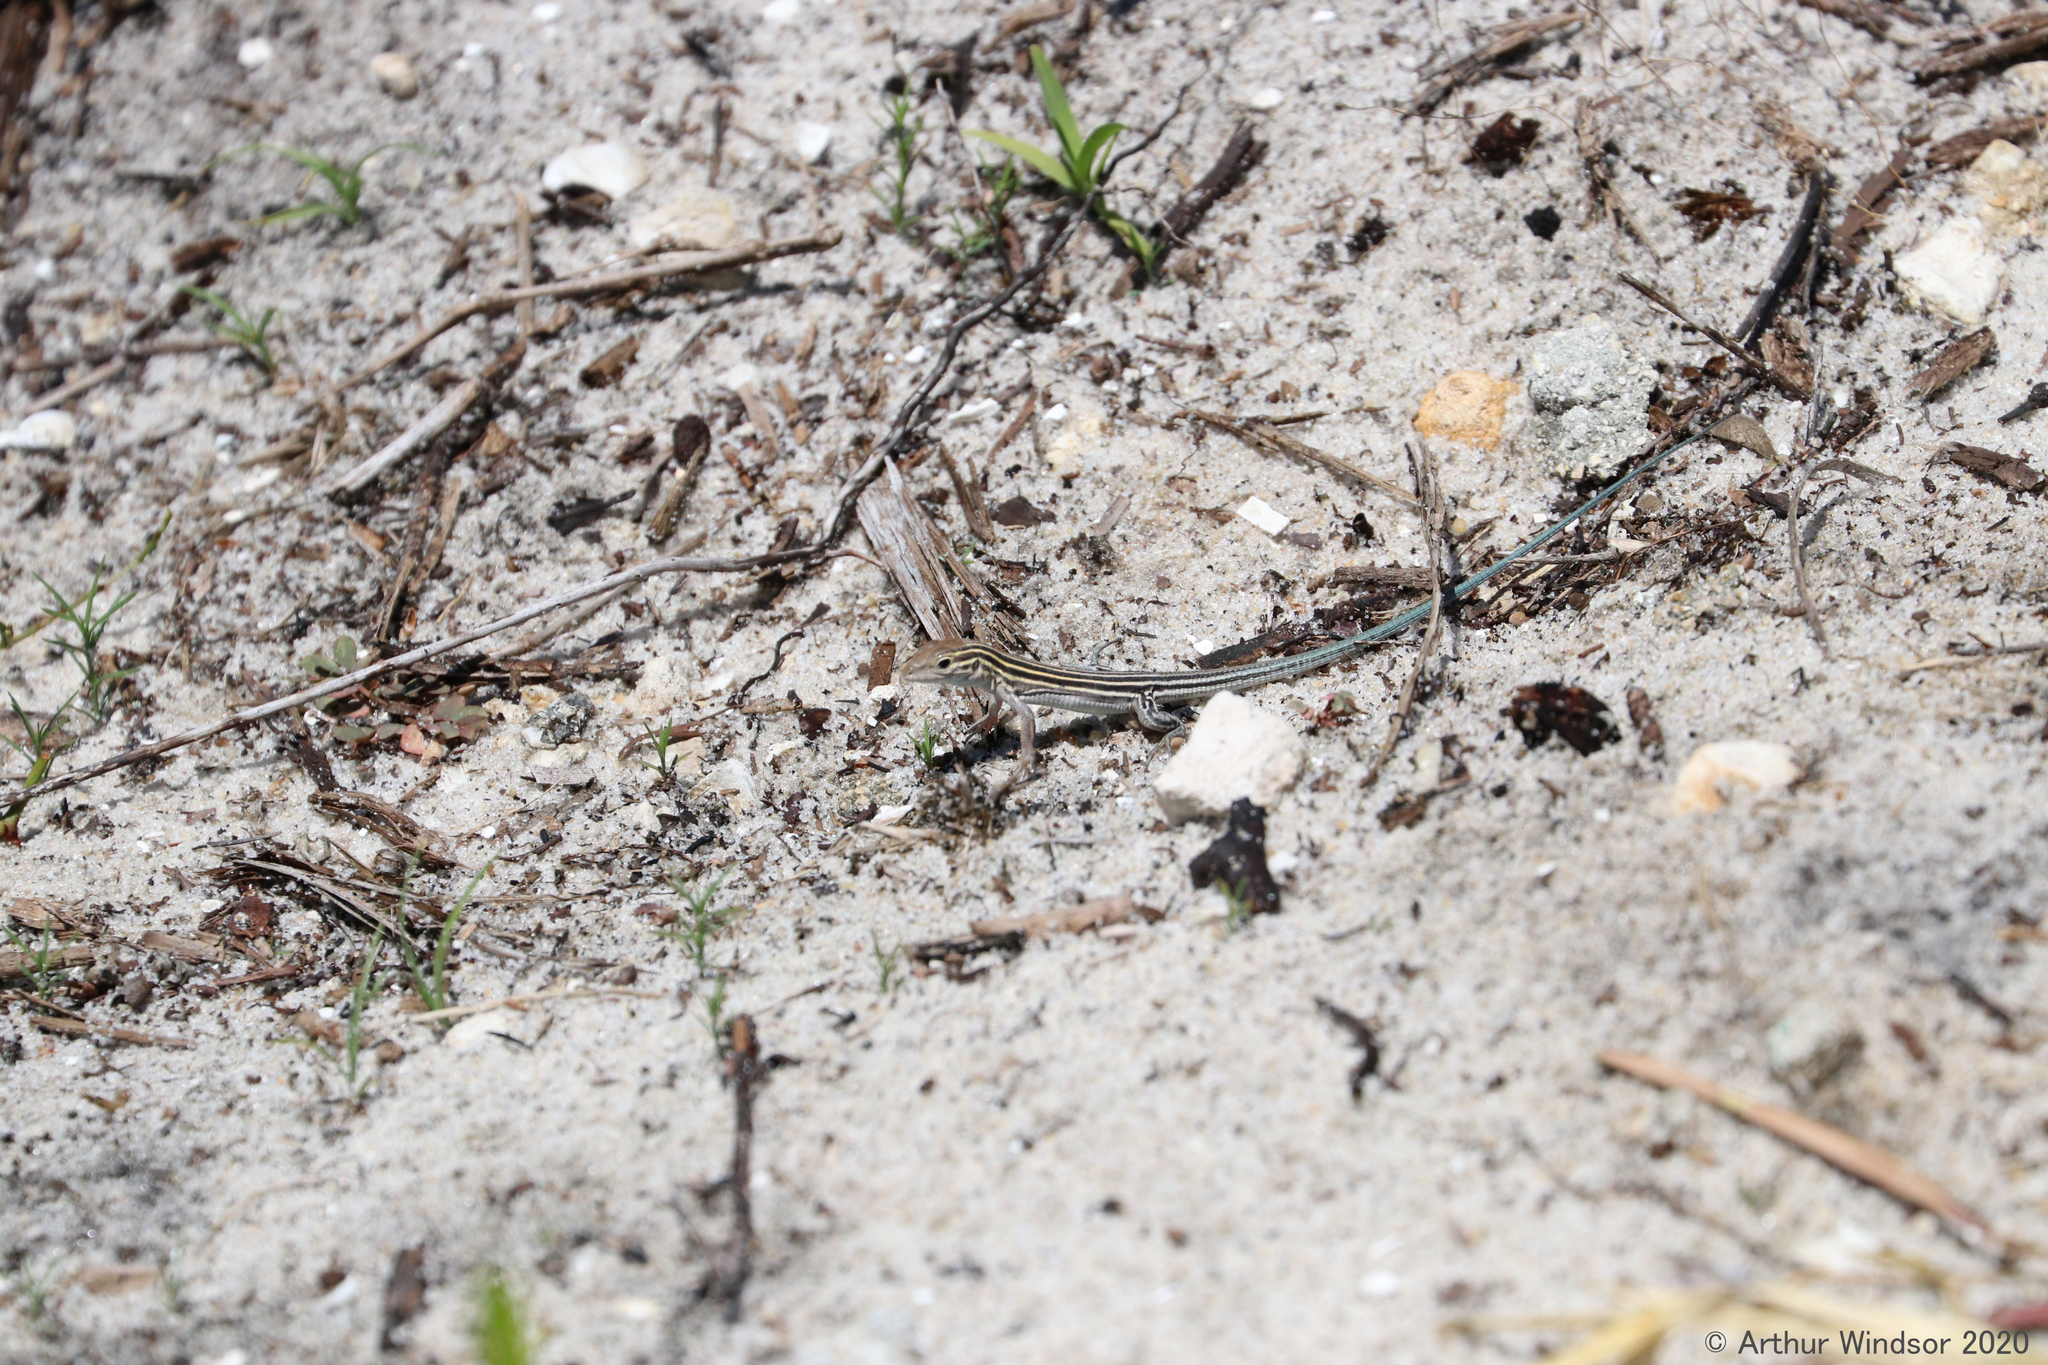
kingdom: Animalia
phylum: Chordata
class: Squamata
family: Teiidae
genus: Aspidoscelis
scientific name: Aspidoscelis sexlineatus
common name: Six-lined racerunner
